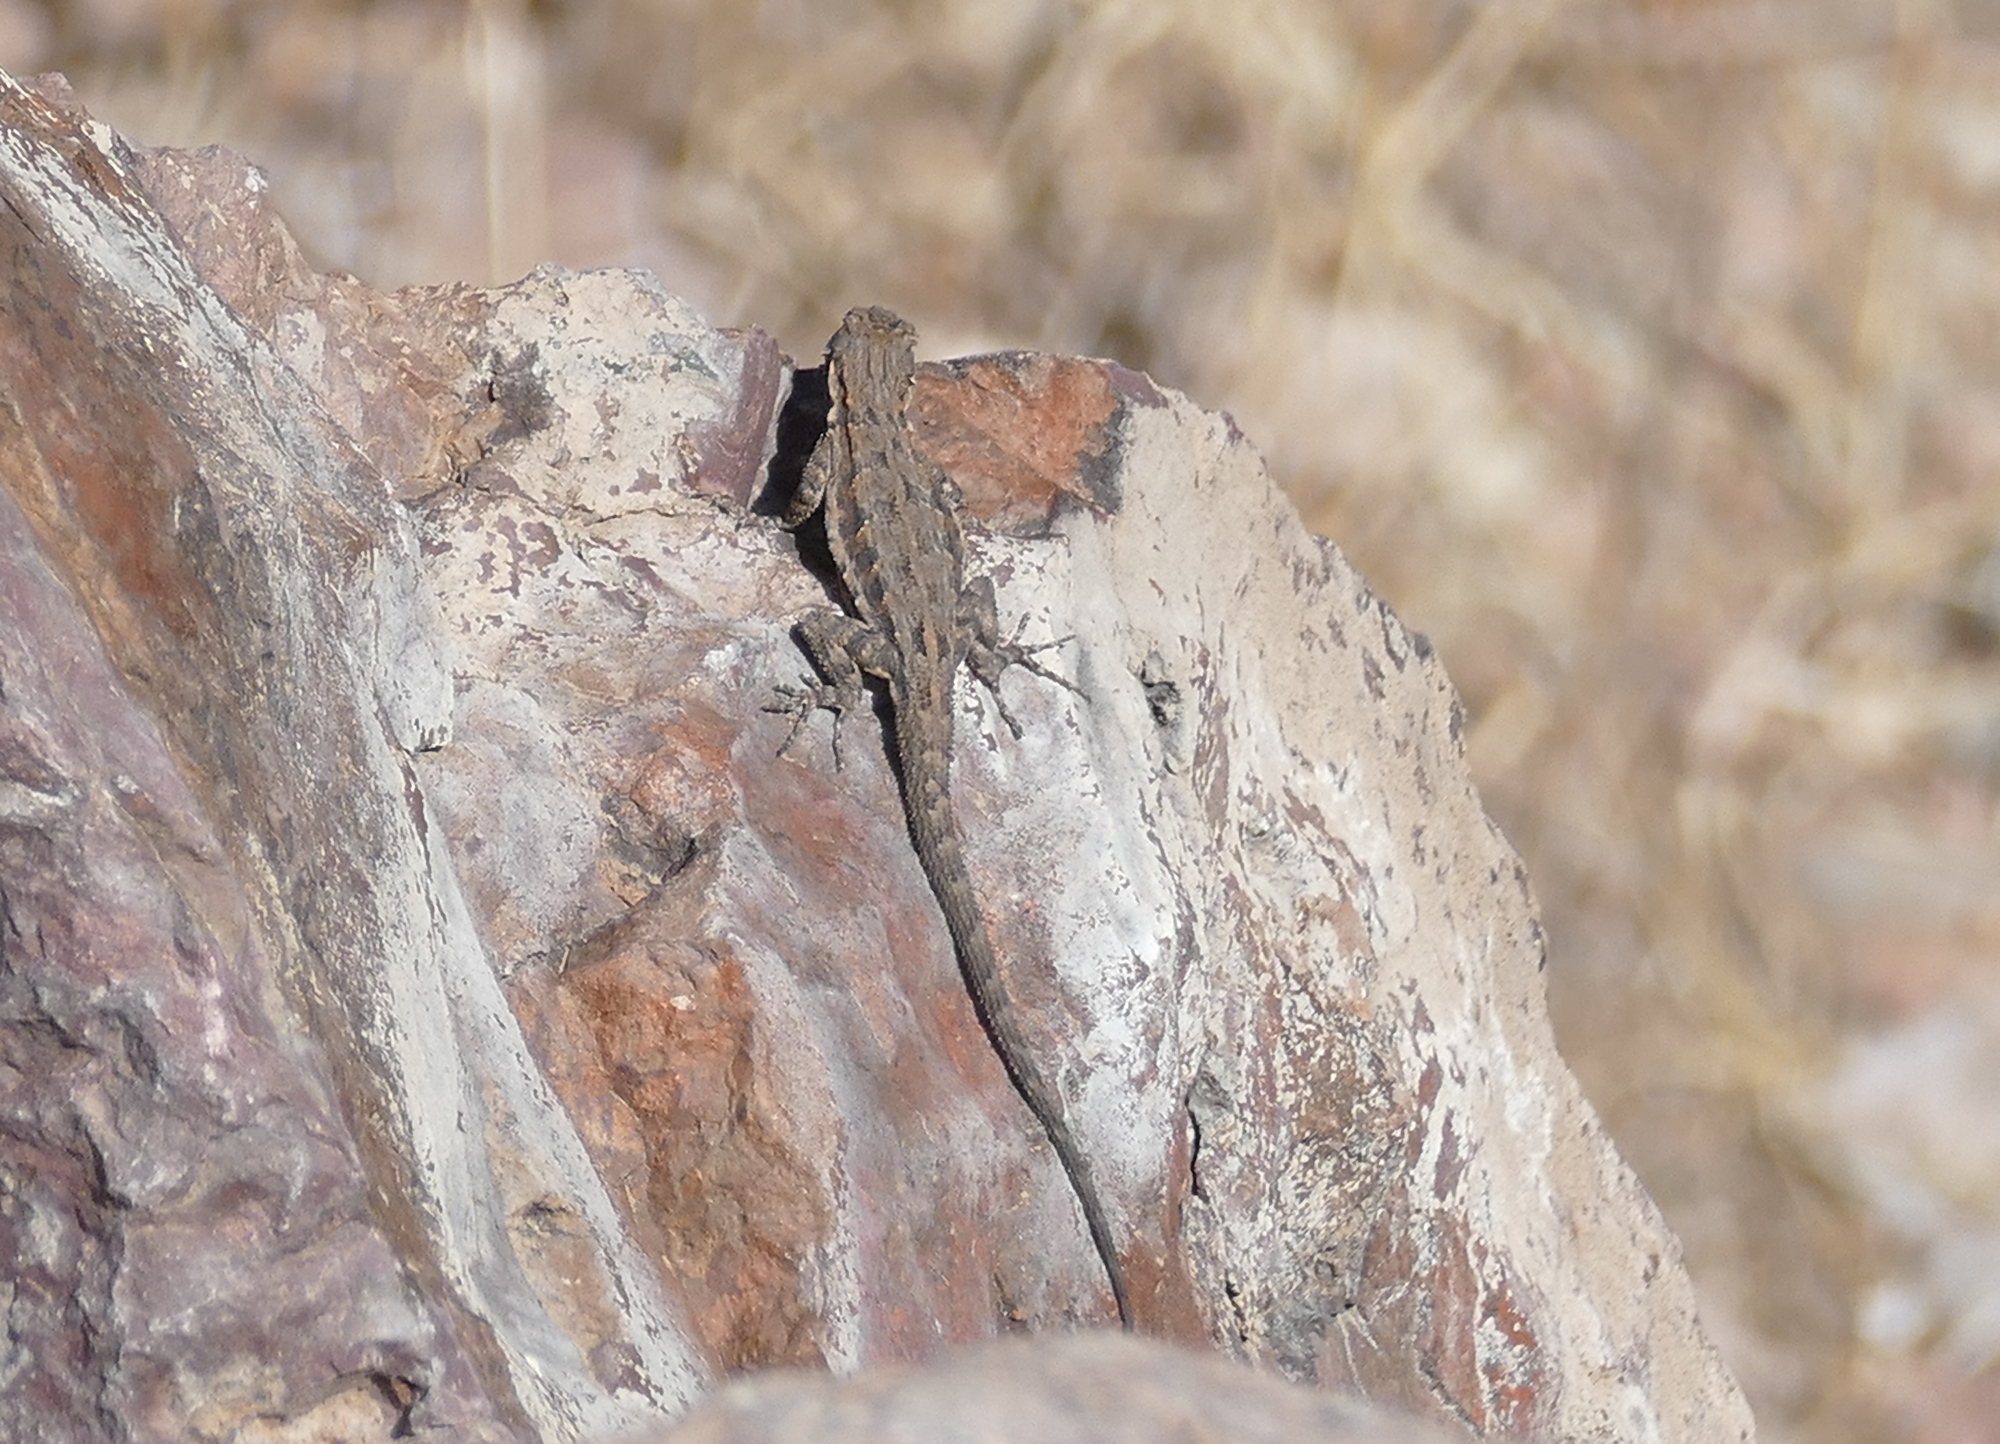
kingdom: Animalia
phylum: Chordata
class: Squamata
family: Phrynosomatidae
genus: Urosaurus
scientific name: Urosaurus ornatus
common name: Ornate tree lizard
